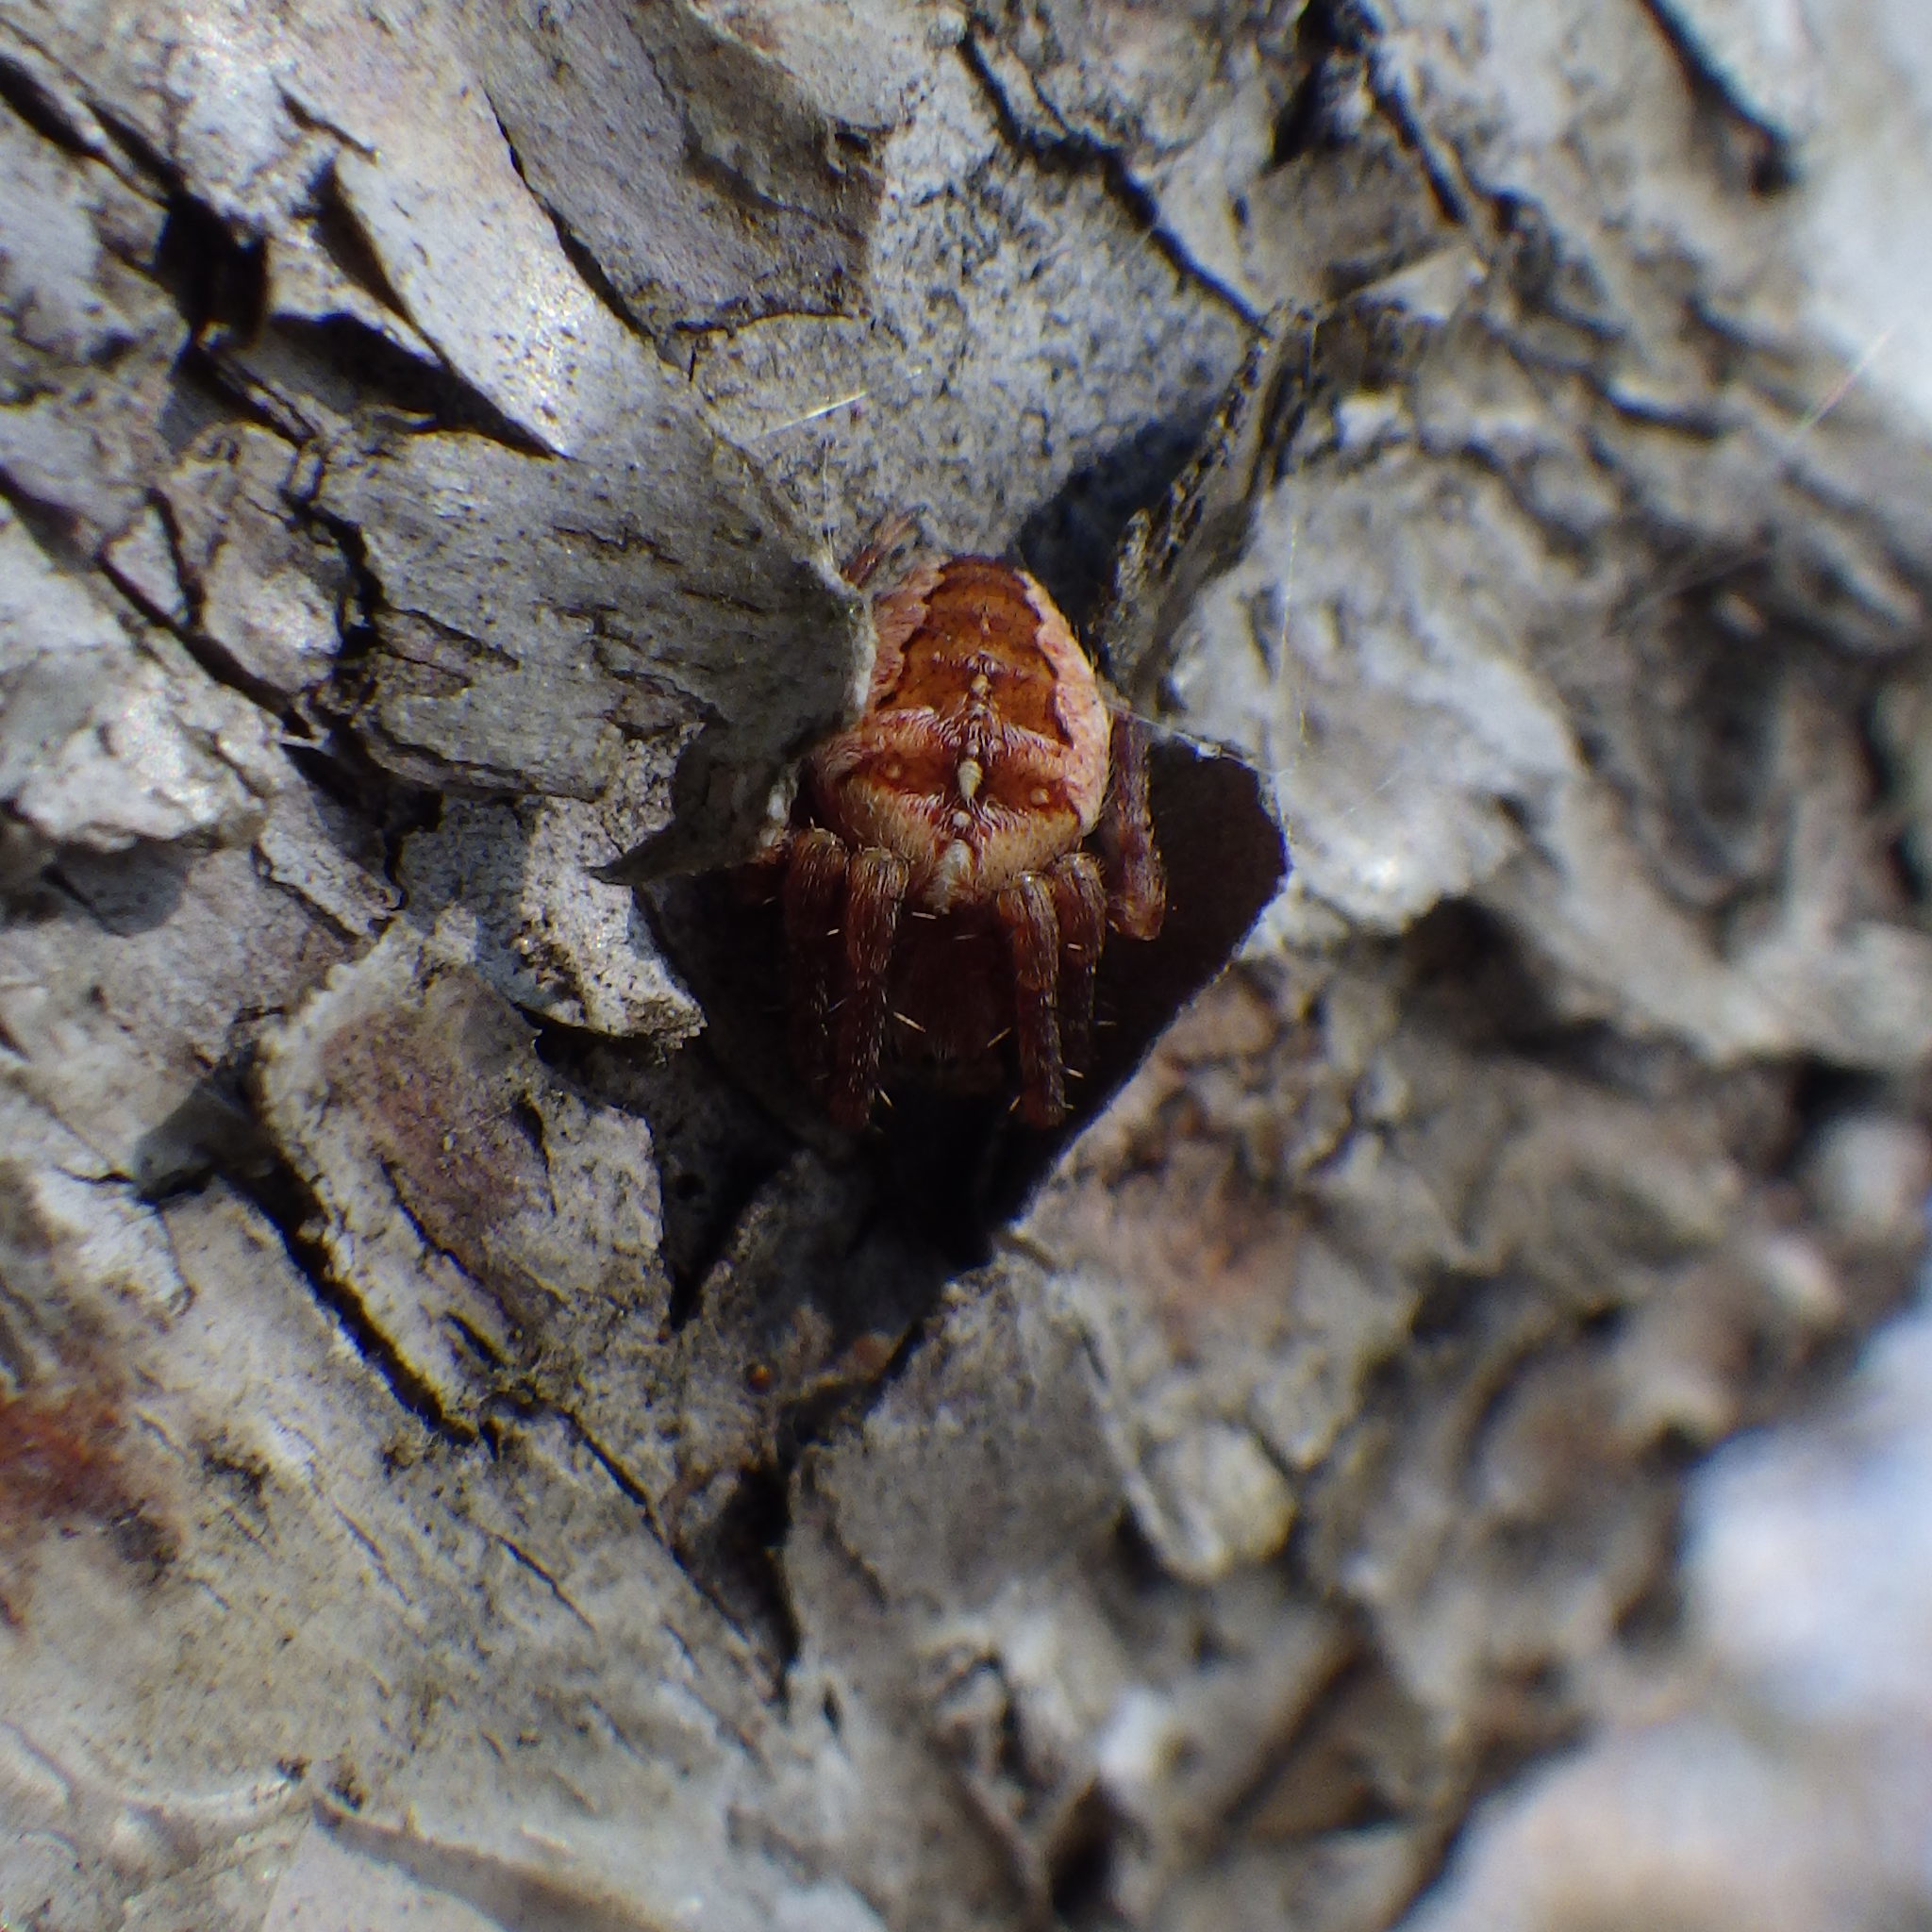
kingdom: Animalia
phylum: Arthropoda
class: Arachnida
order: Araneae
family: Araneidae
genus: Araneus
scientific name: Araneus diadematus
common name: Cross orbweaver
